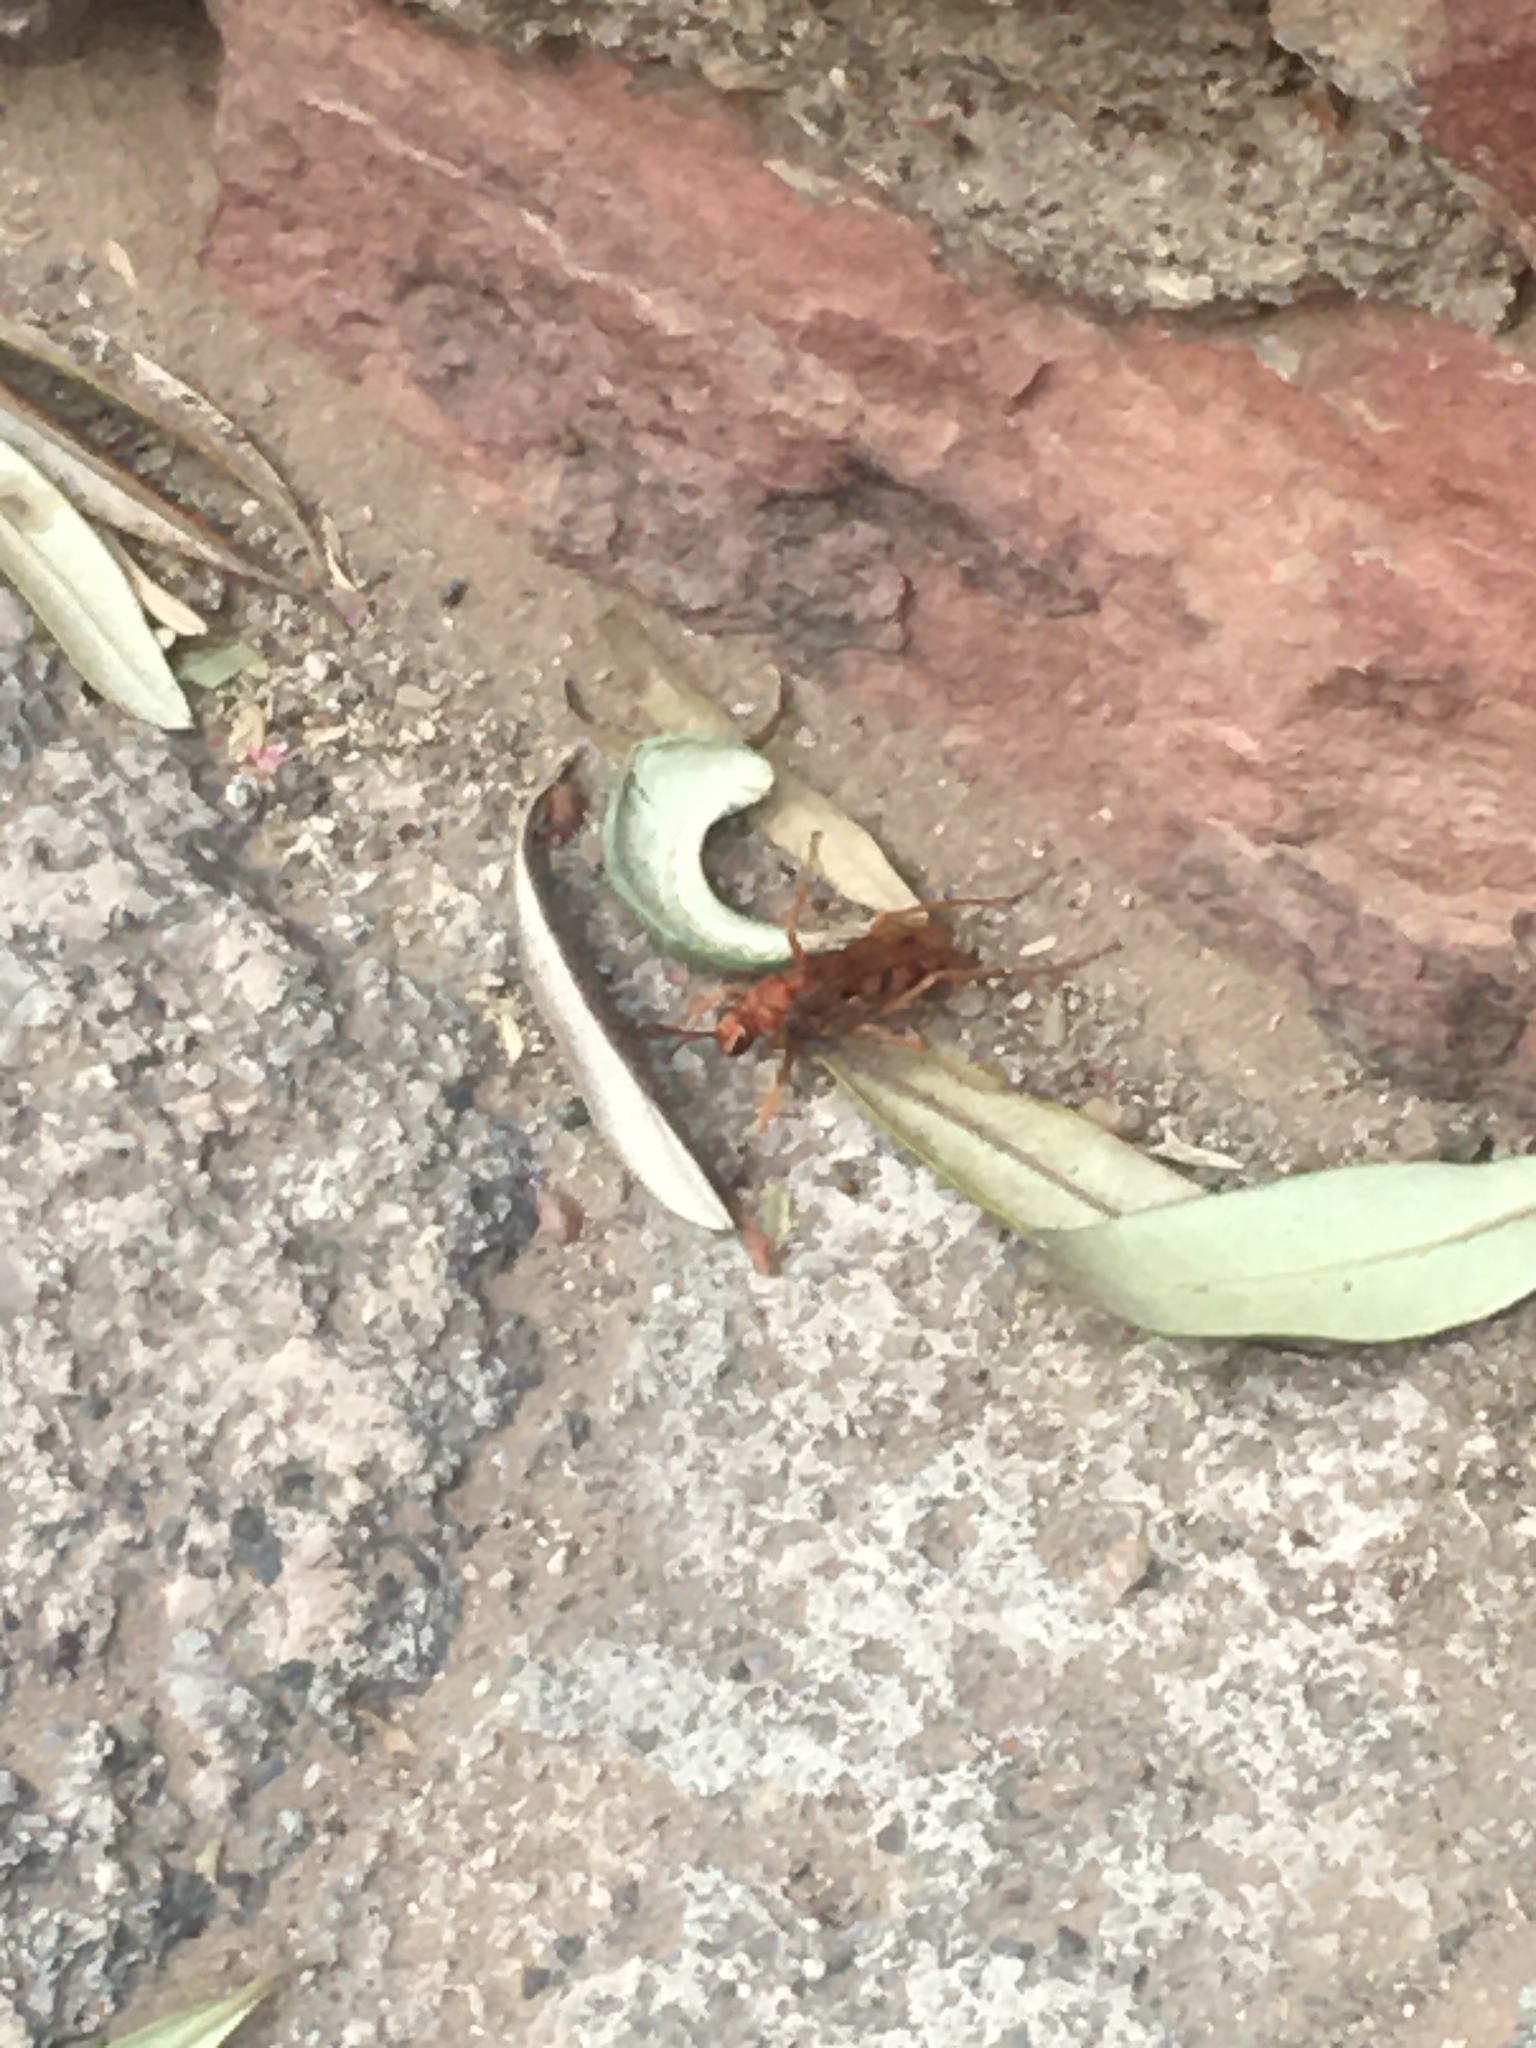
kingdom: Animalia
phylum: Arthropoda
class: Insecta
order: Hymenoptera
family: Pompilidae
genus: Tachypompilus
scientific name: Tachypompilus
